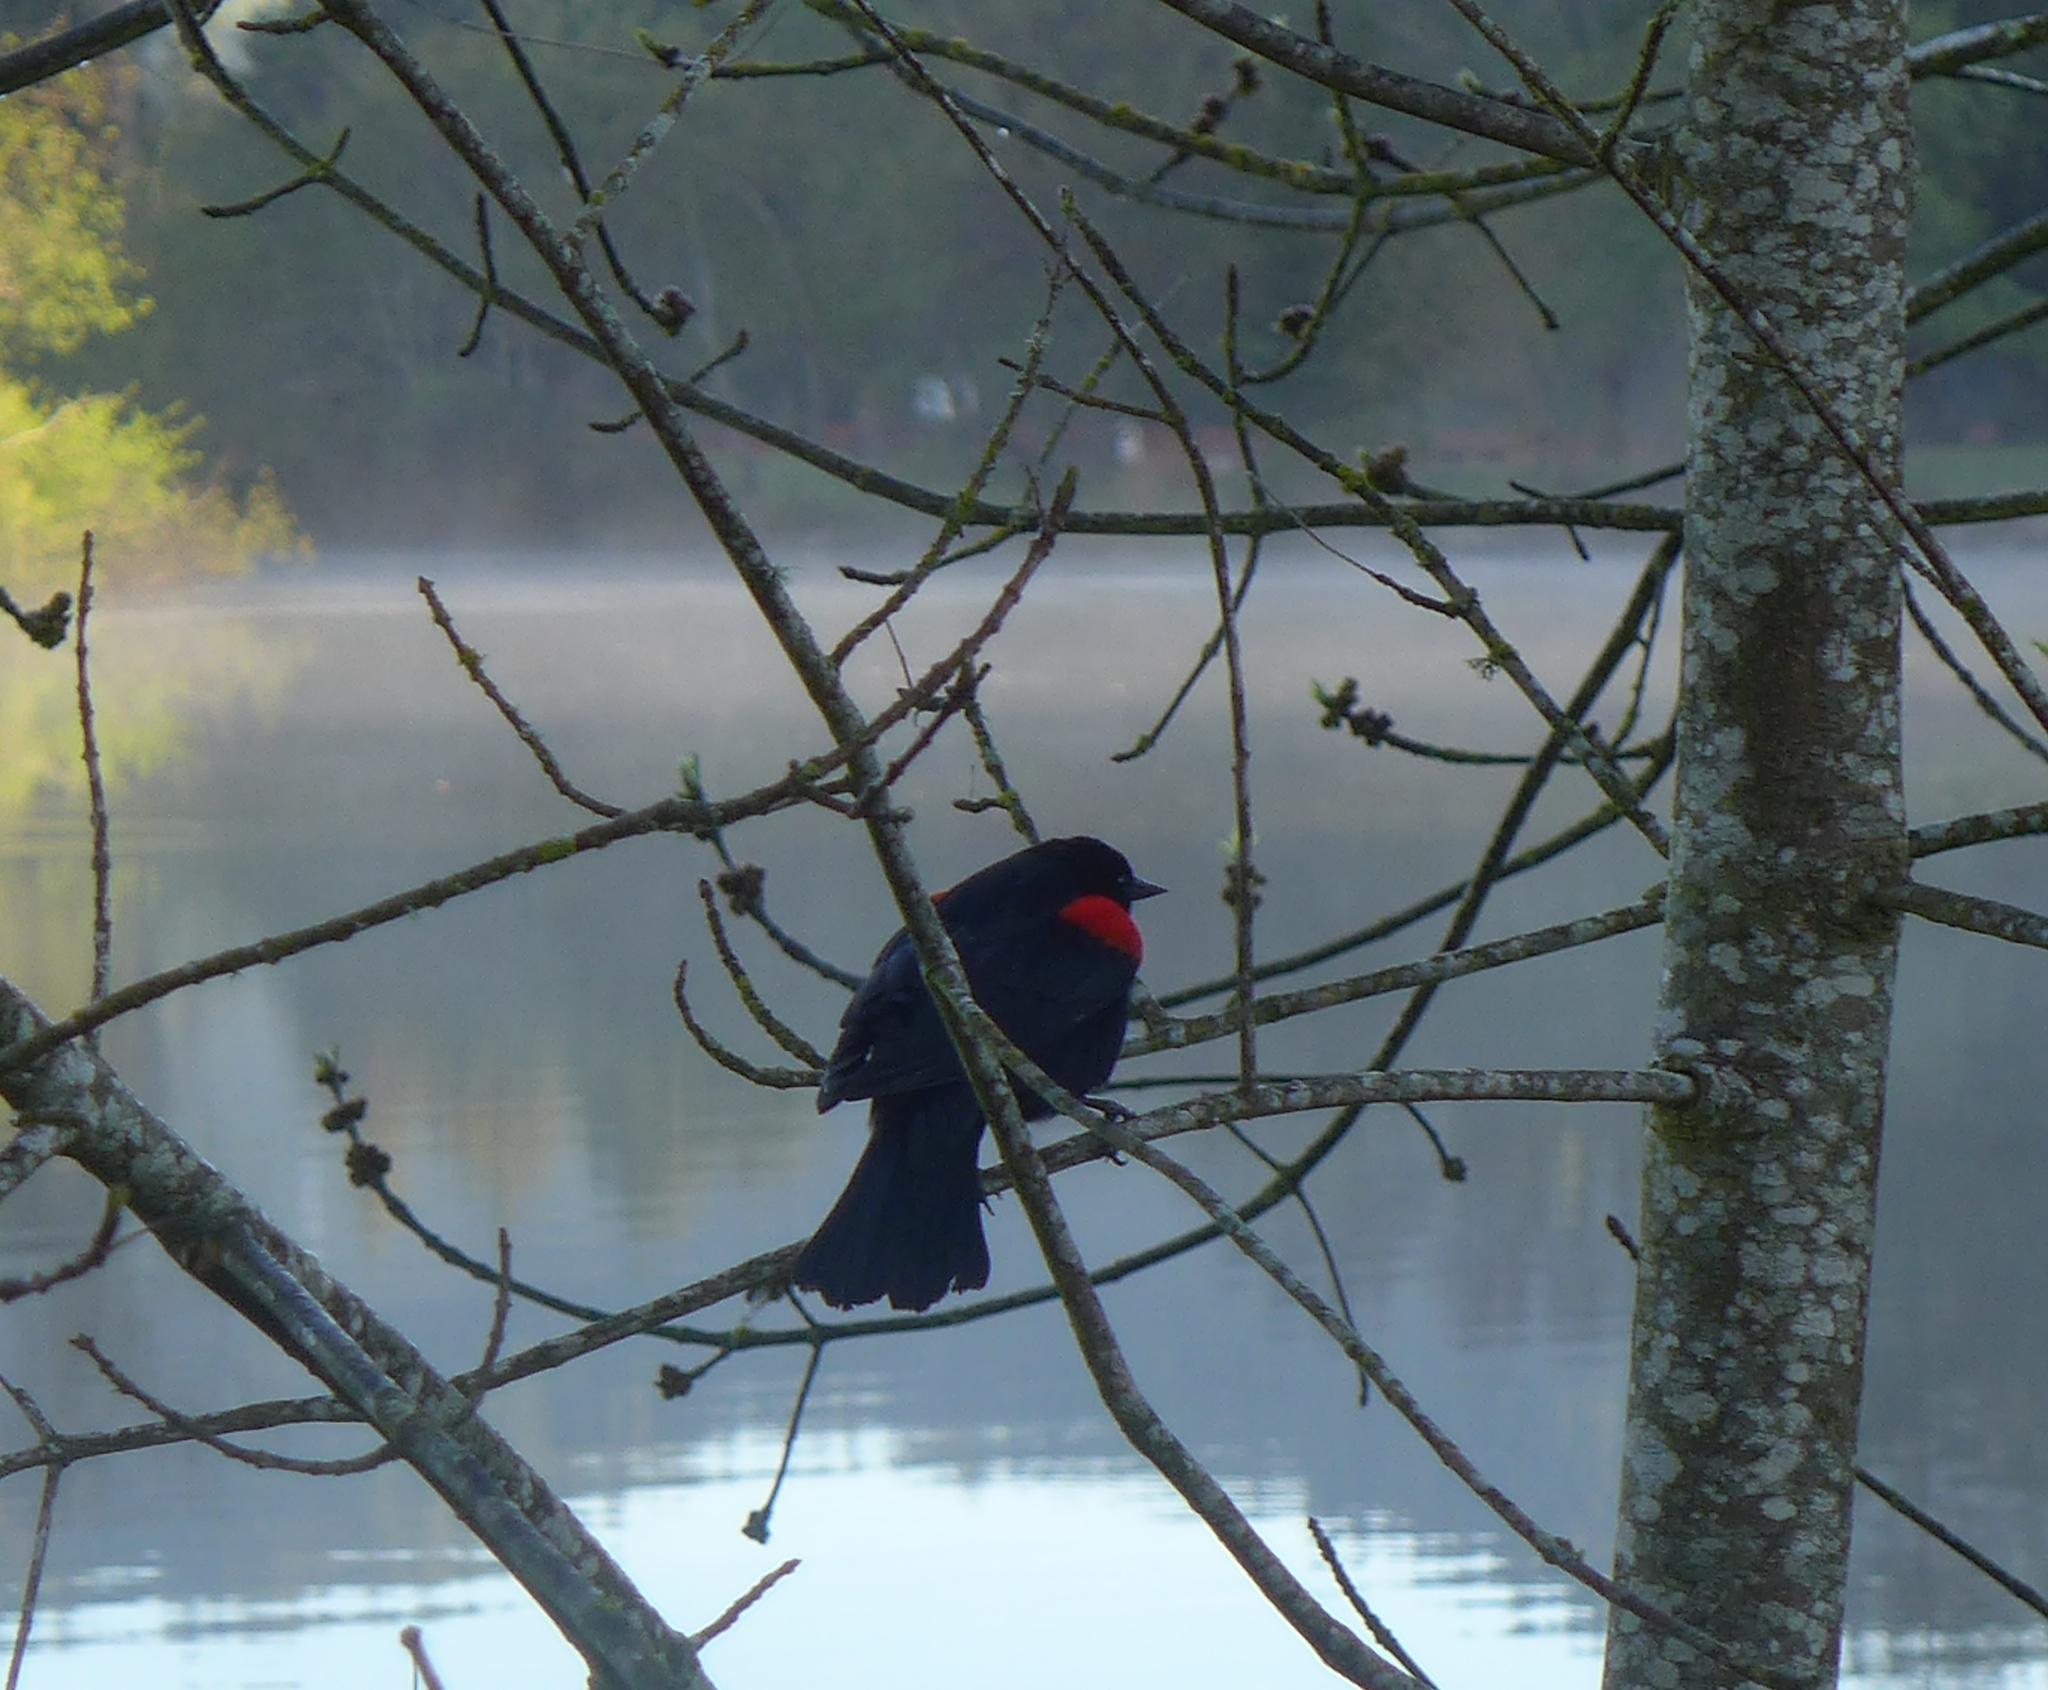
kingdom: Animalia
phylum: Chordata
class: Aves
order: Passeriformes
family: Icteridae
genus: Agelaius
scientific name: Agelaius phoeniceus
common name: Red-winged blackbird
